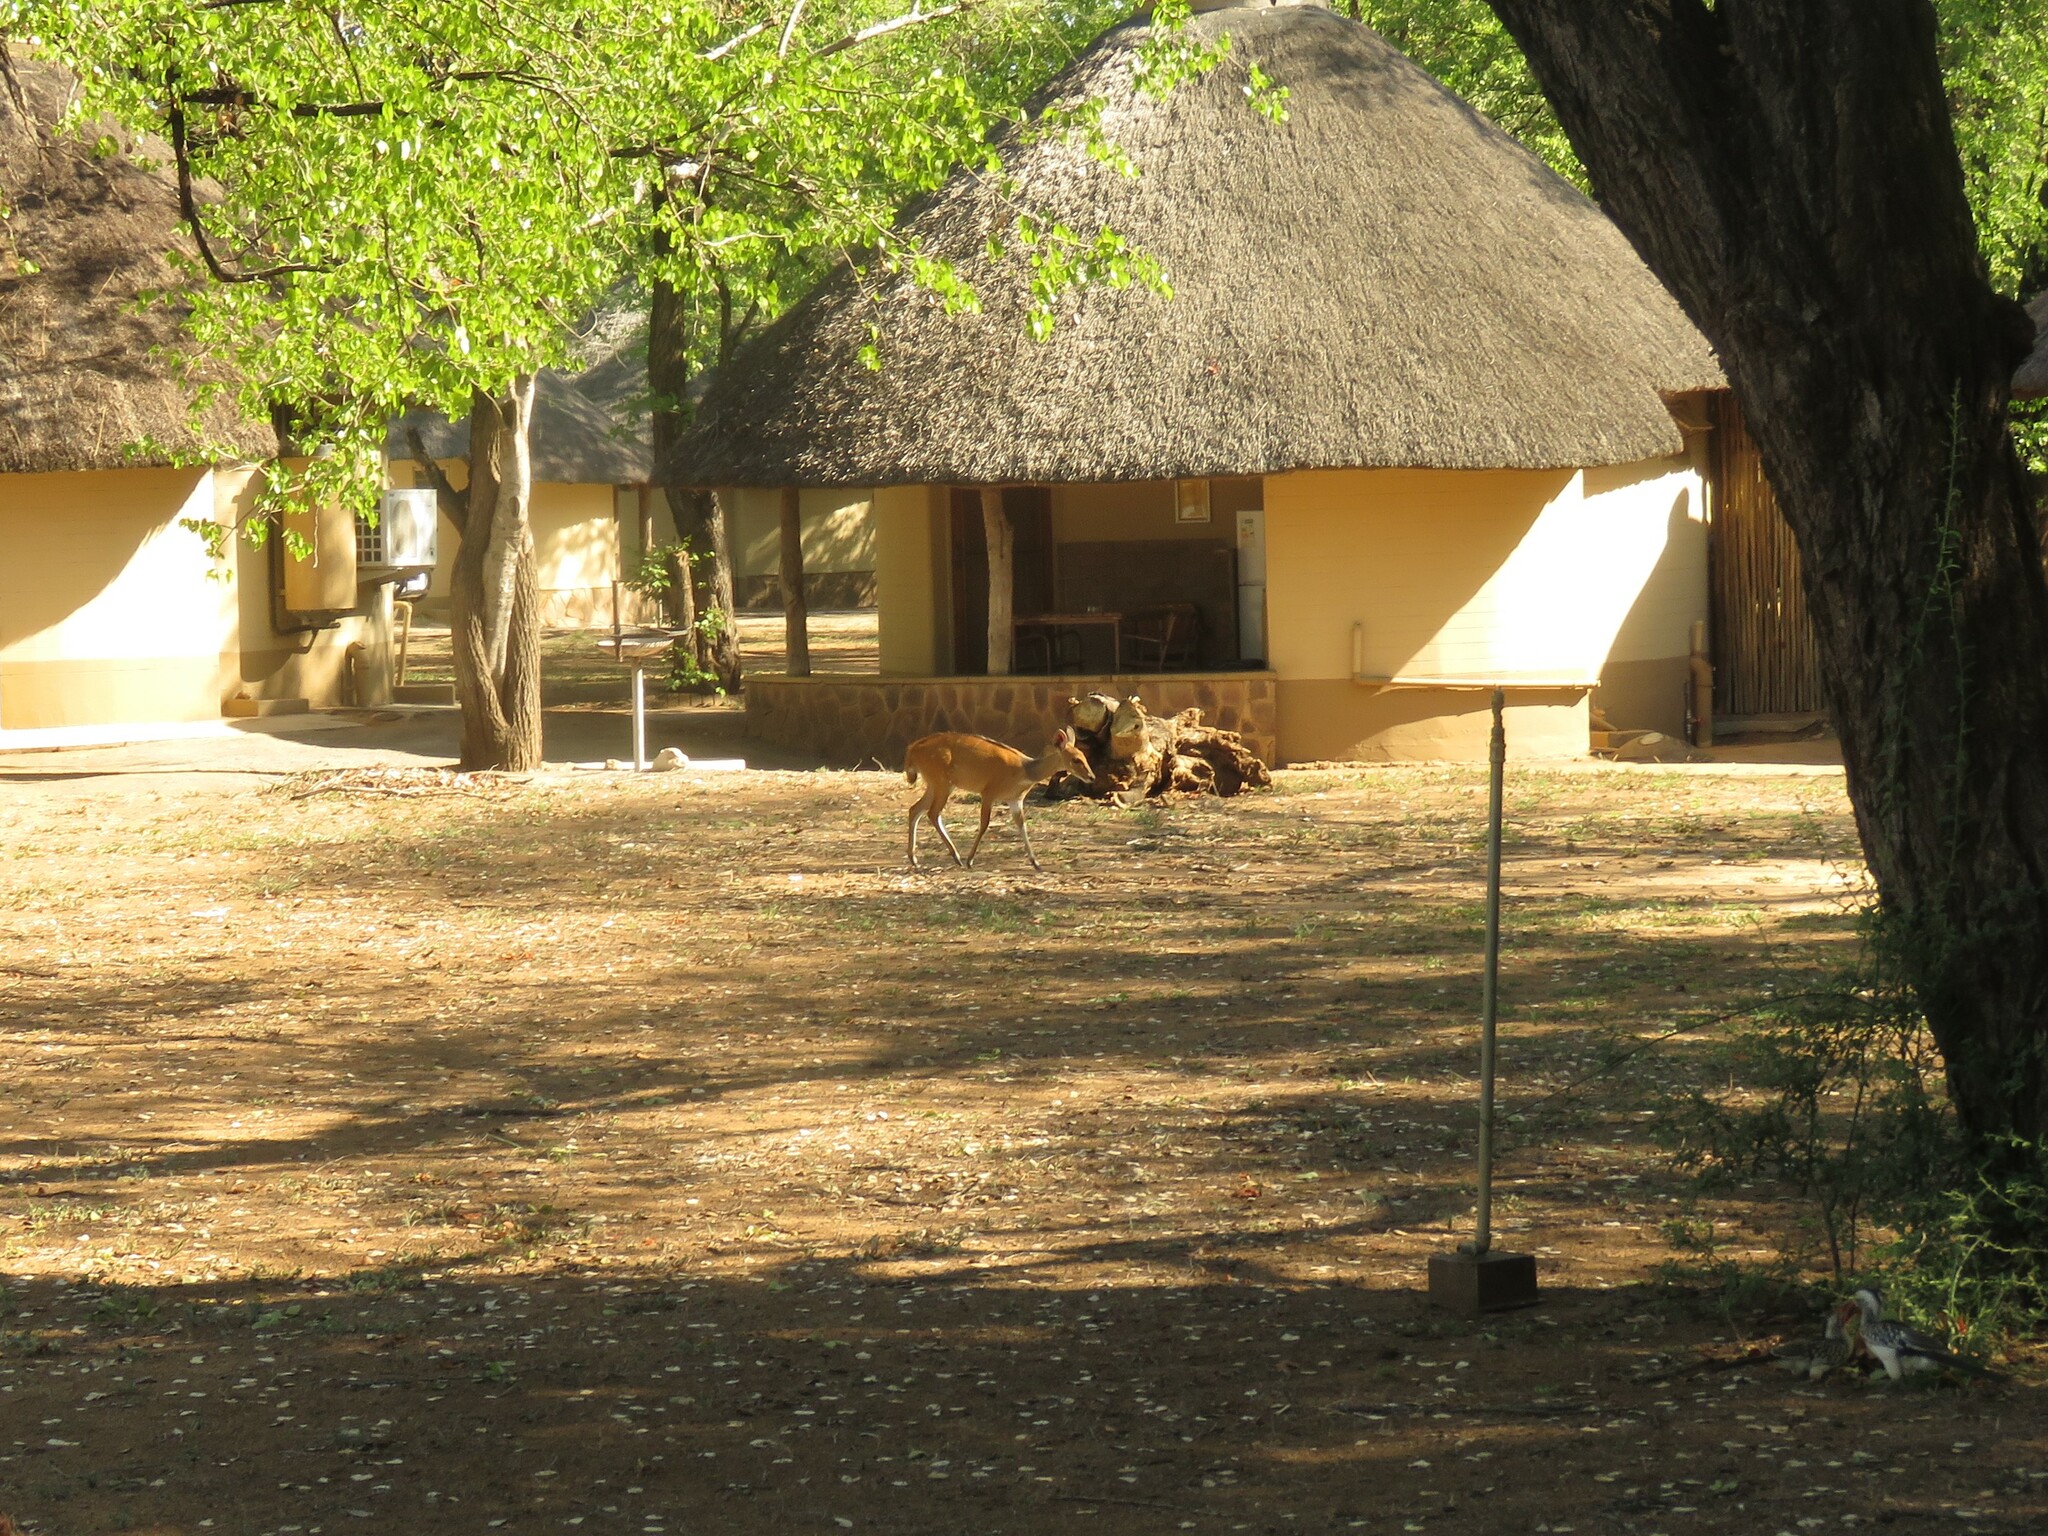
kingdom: Animalia
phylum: Chordata
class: Mammalia
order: Artiodactyla
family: Bovidae
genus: Tragelaphus
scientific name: Tragelaphus scriptus
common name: Bushbuck
